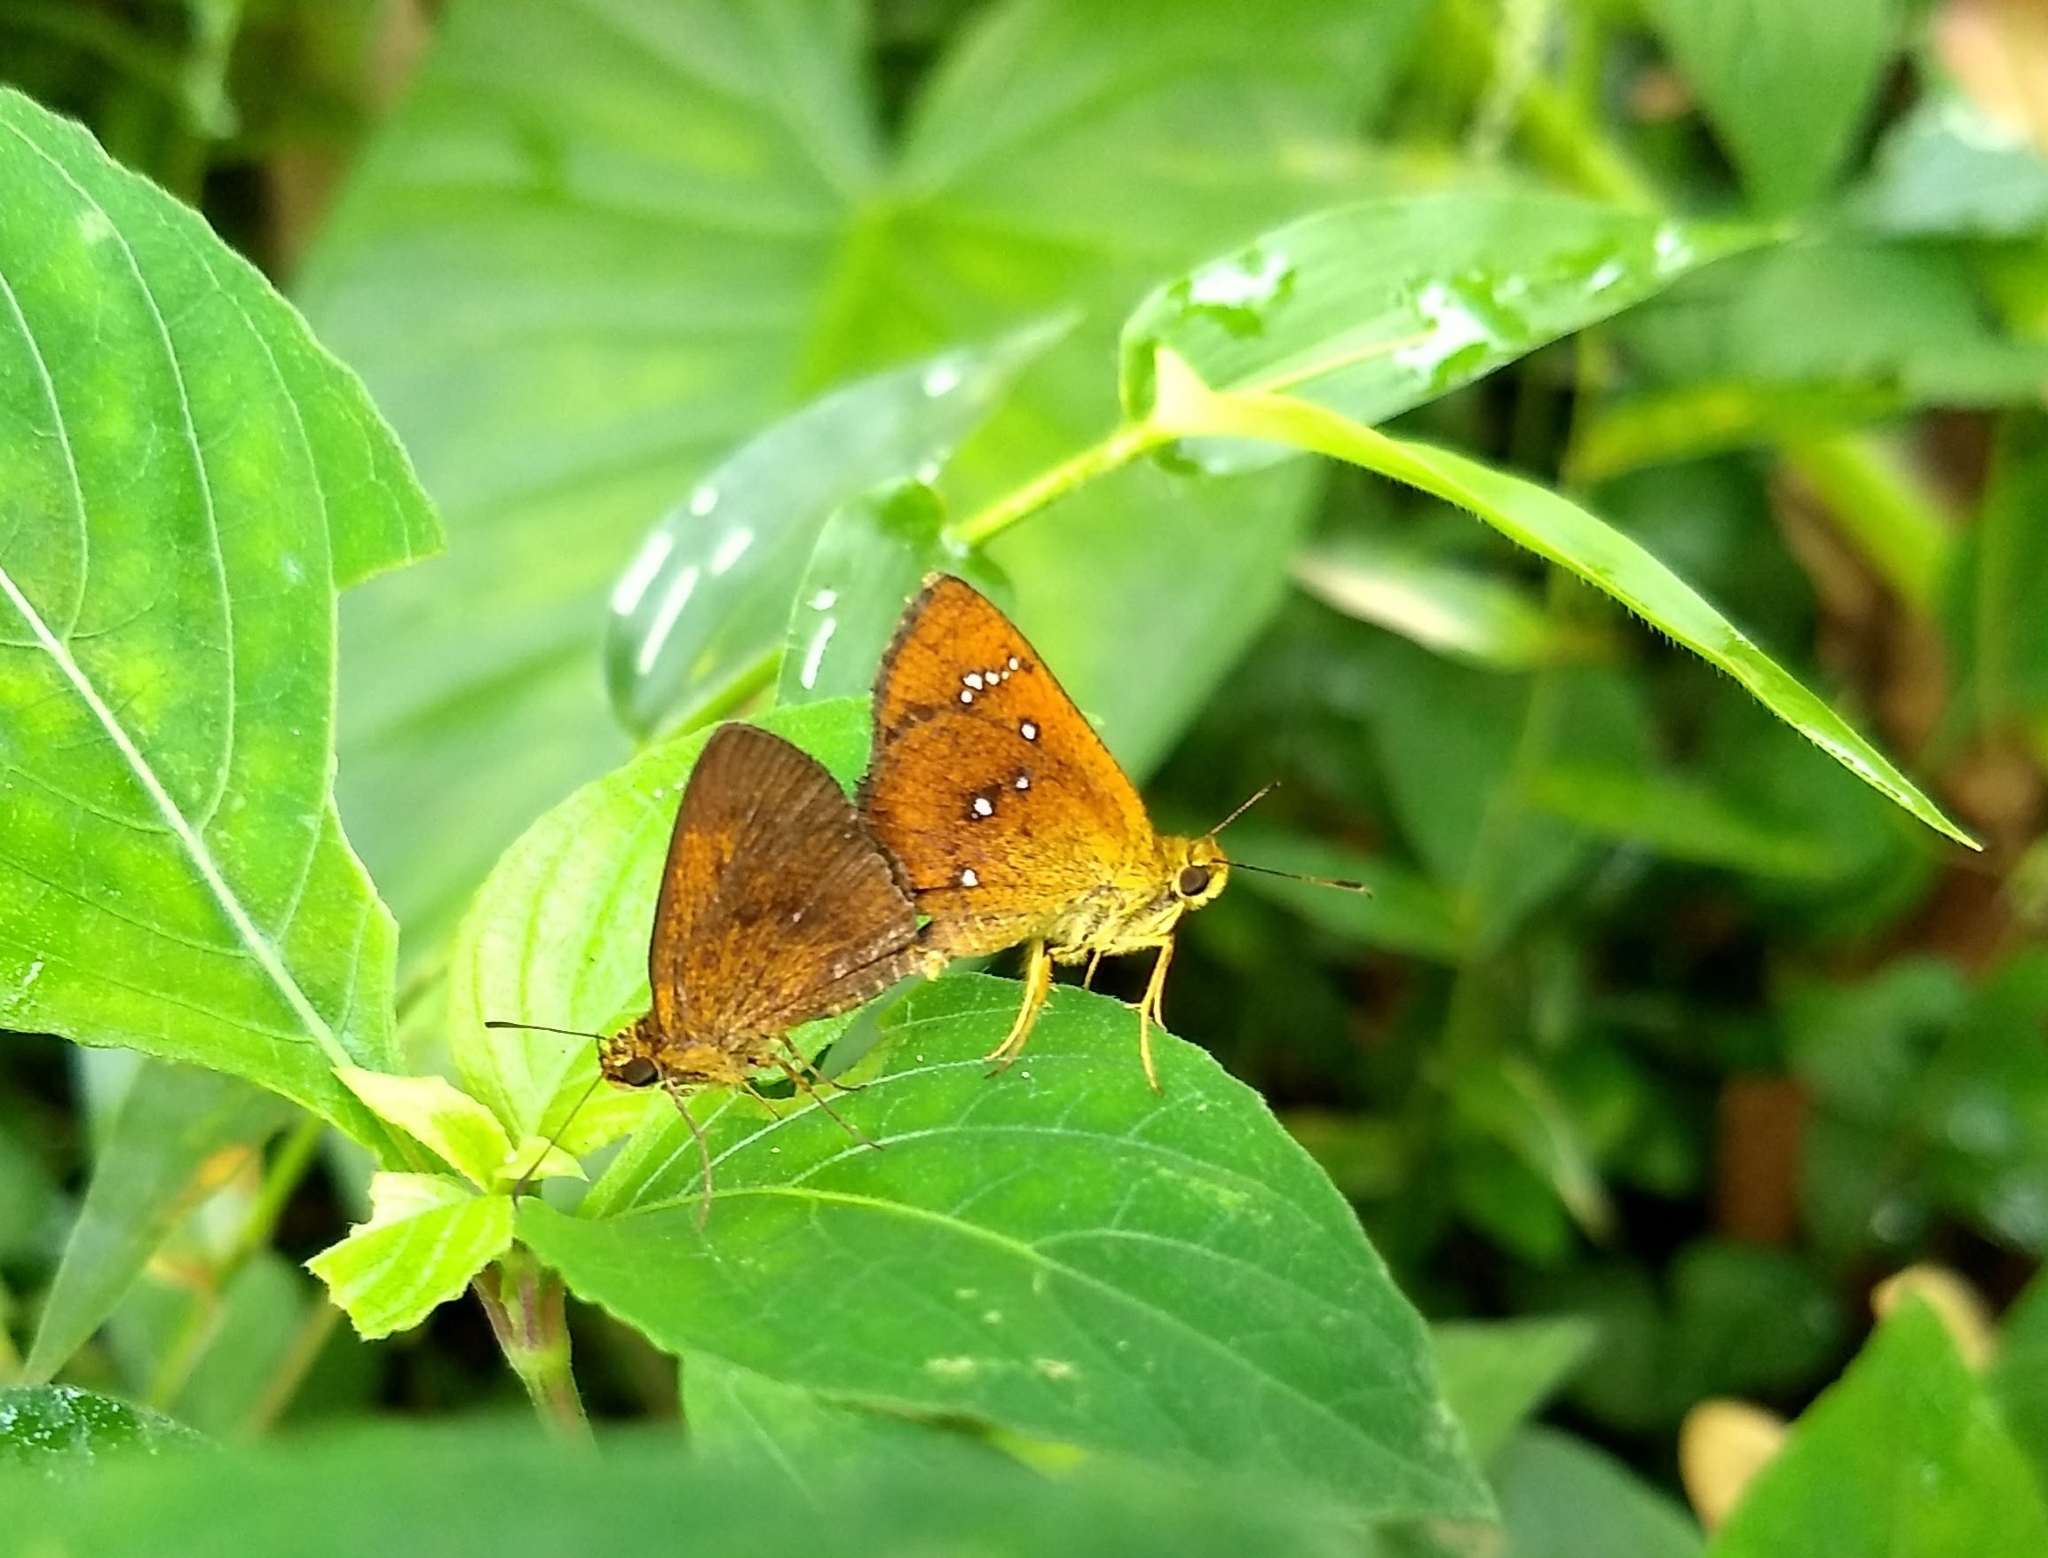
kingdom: Animalia
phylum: Arthropoda
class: Insecta
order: Lepidoptera
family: Hesperiidae
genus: Iambrix
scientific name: Iambrix salsala
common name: Chestnut bob
